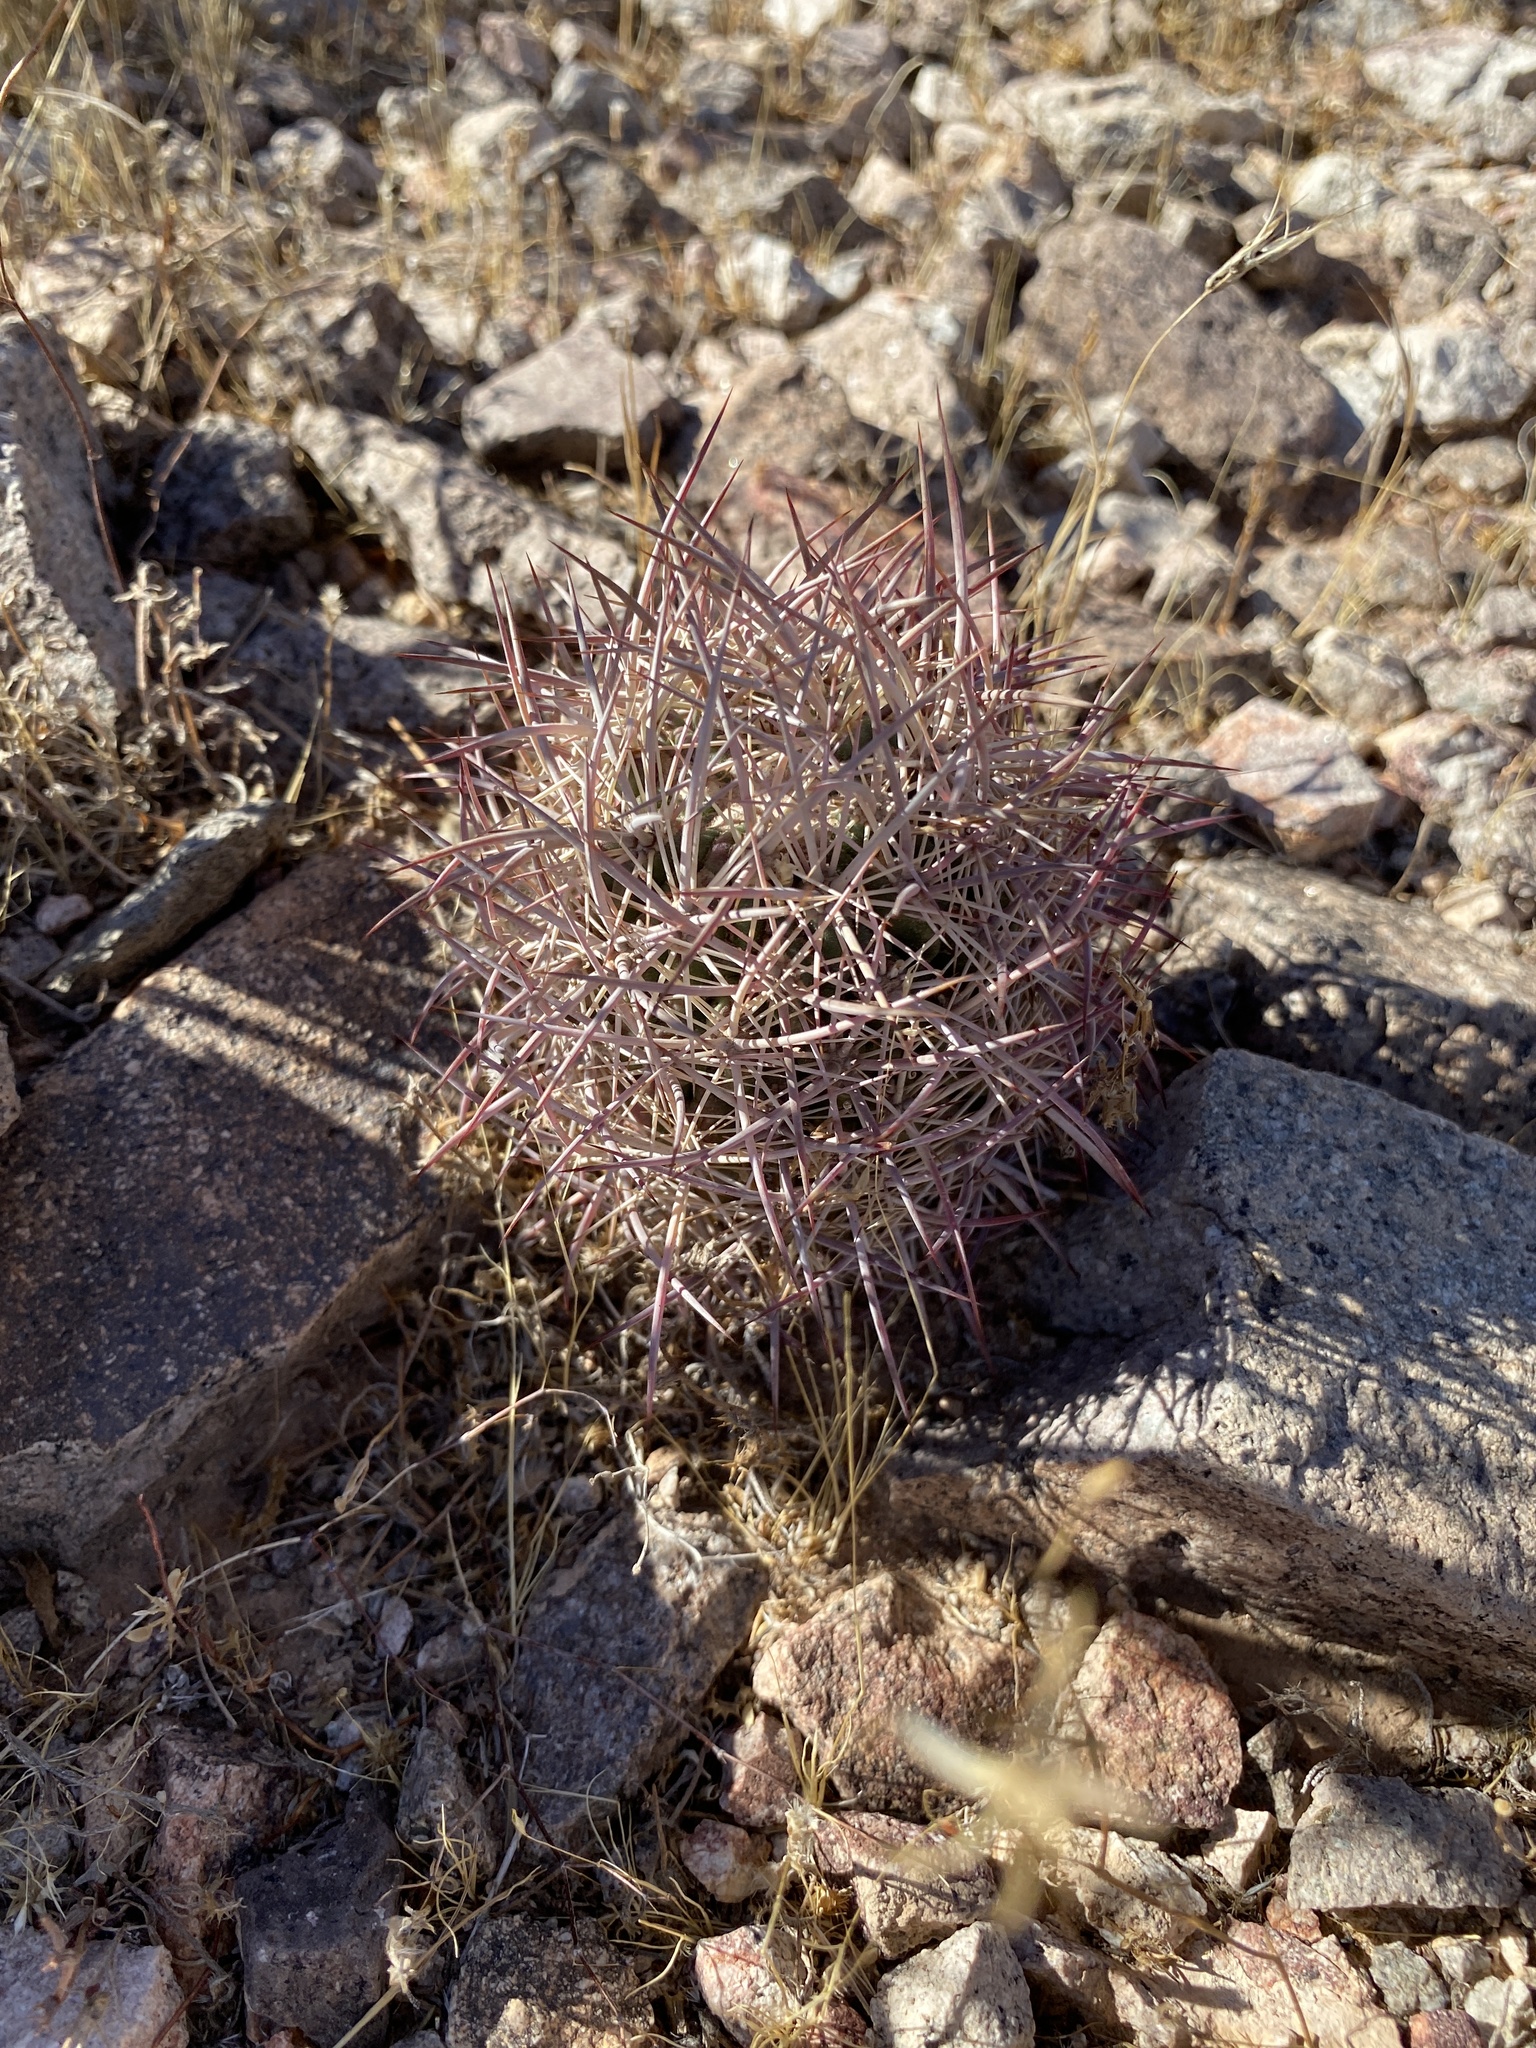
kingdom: Plantae
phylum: Tracheophyta
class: Magnoliopsida
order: Caryophyllales
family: Cactaceae
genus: Sclerocactus
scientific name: Sclerocactus johnsonii
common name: Eight-spine fishhook cactus
